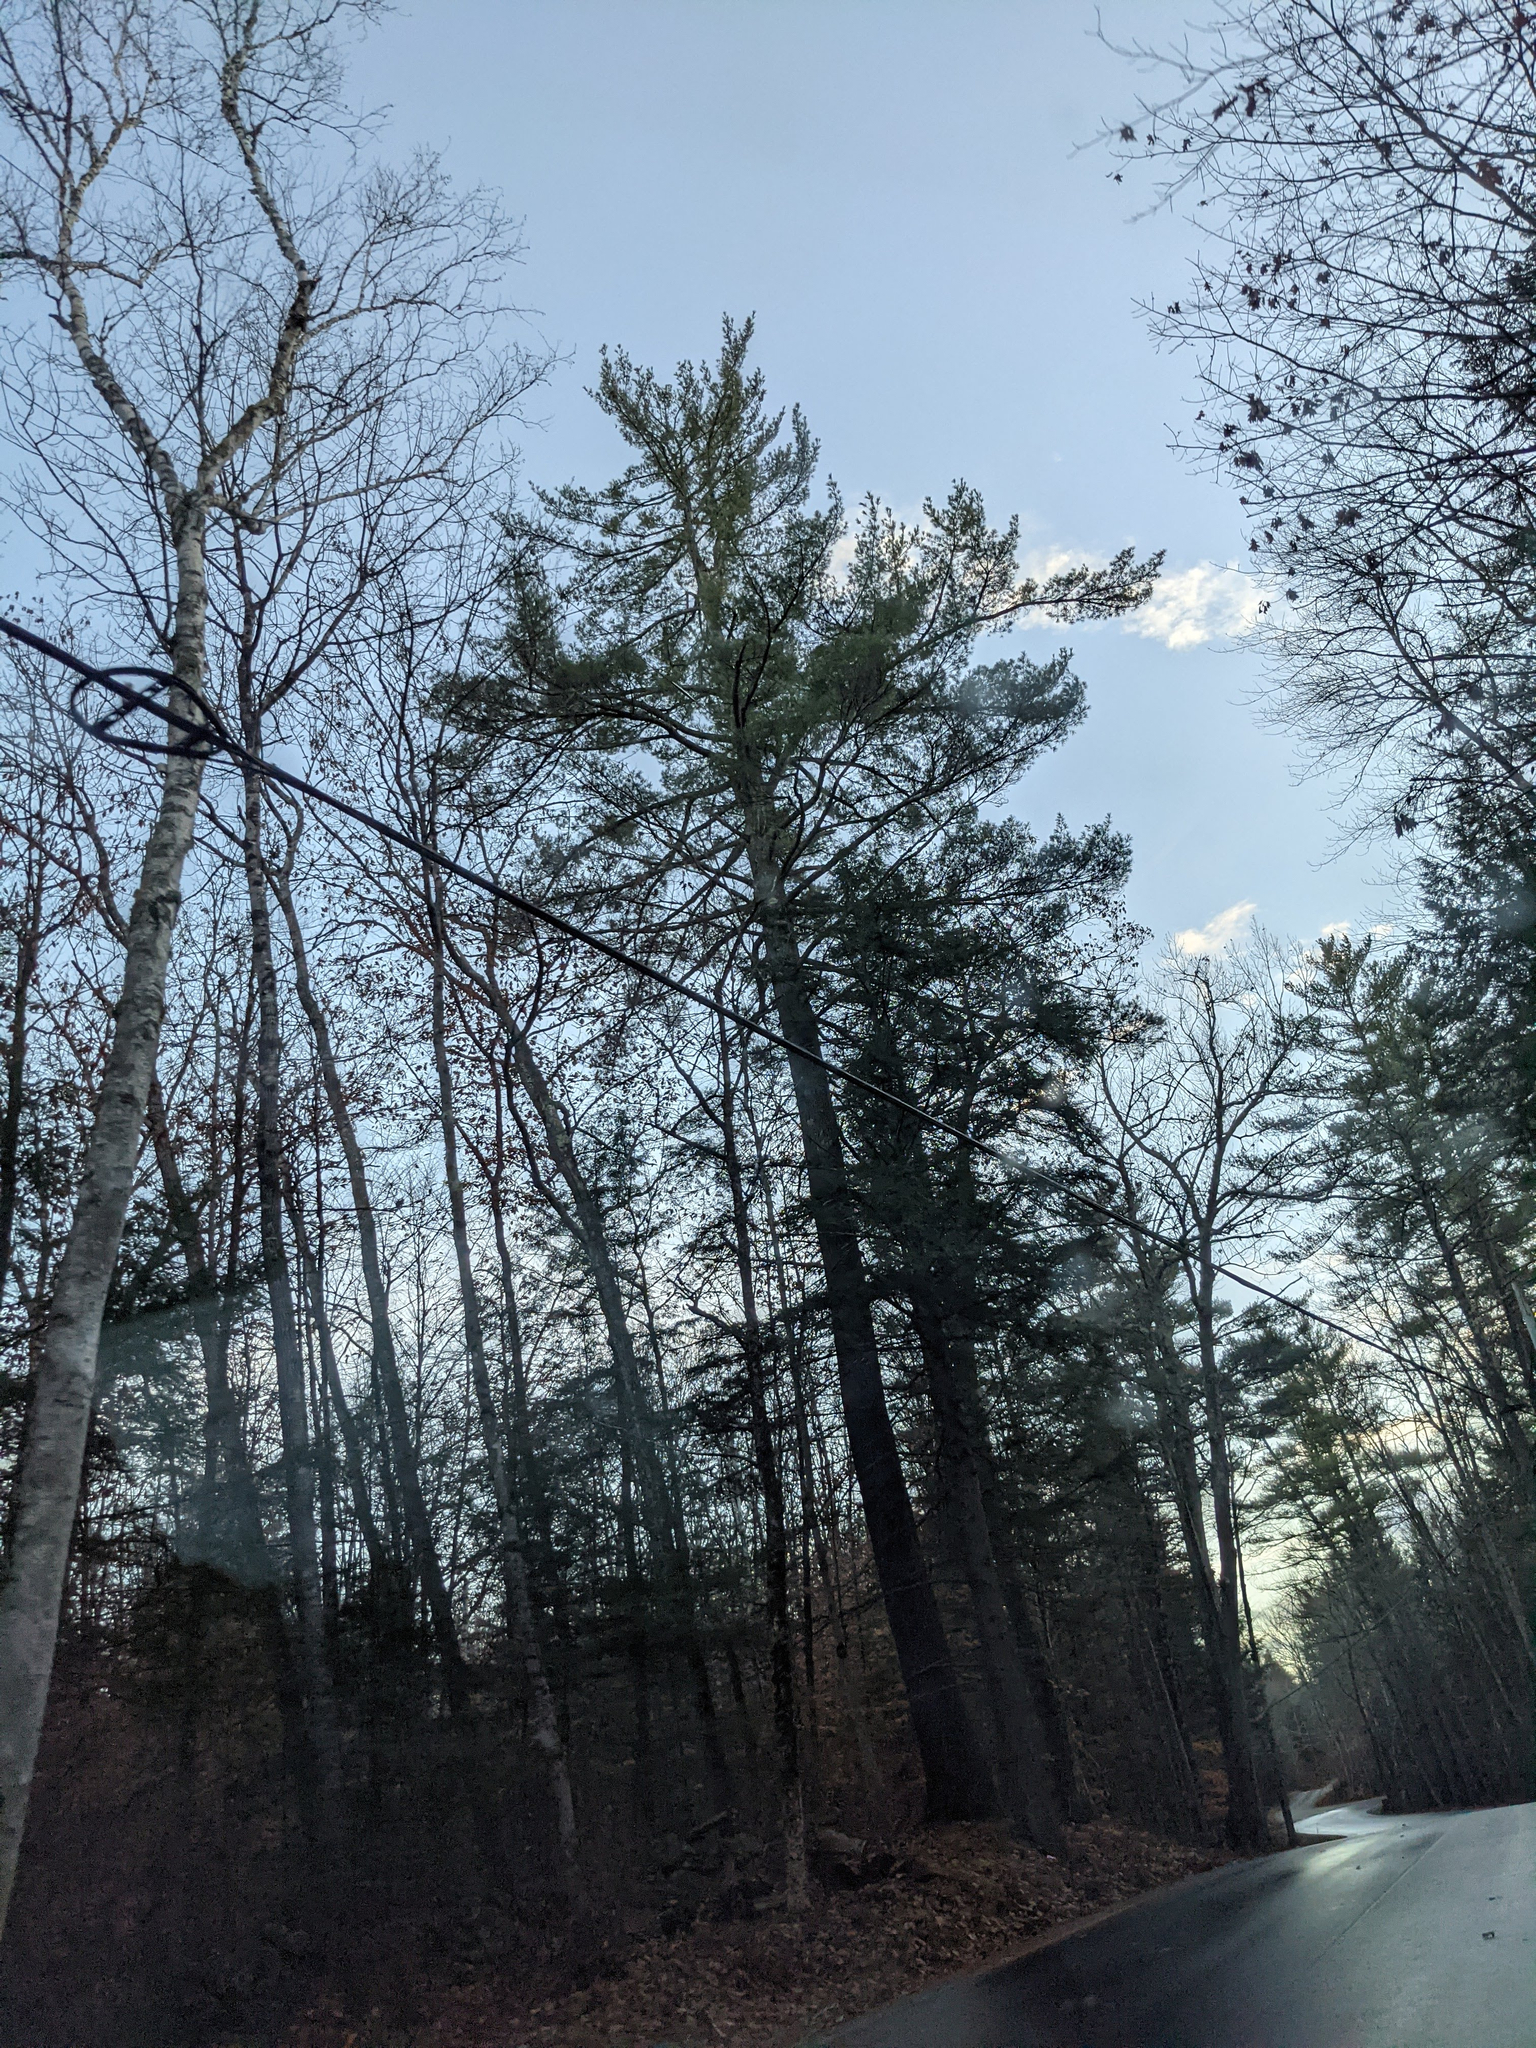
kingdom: Plantae
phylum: Tracheophyta
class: Pinopsida
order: Pinales
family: Pinaceae
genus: Pinus
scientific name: Pinus strobus
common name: Weymouth pine
